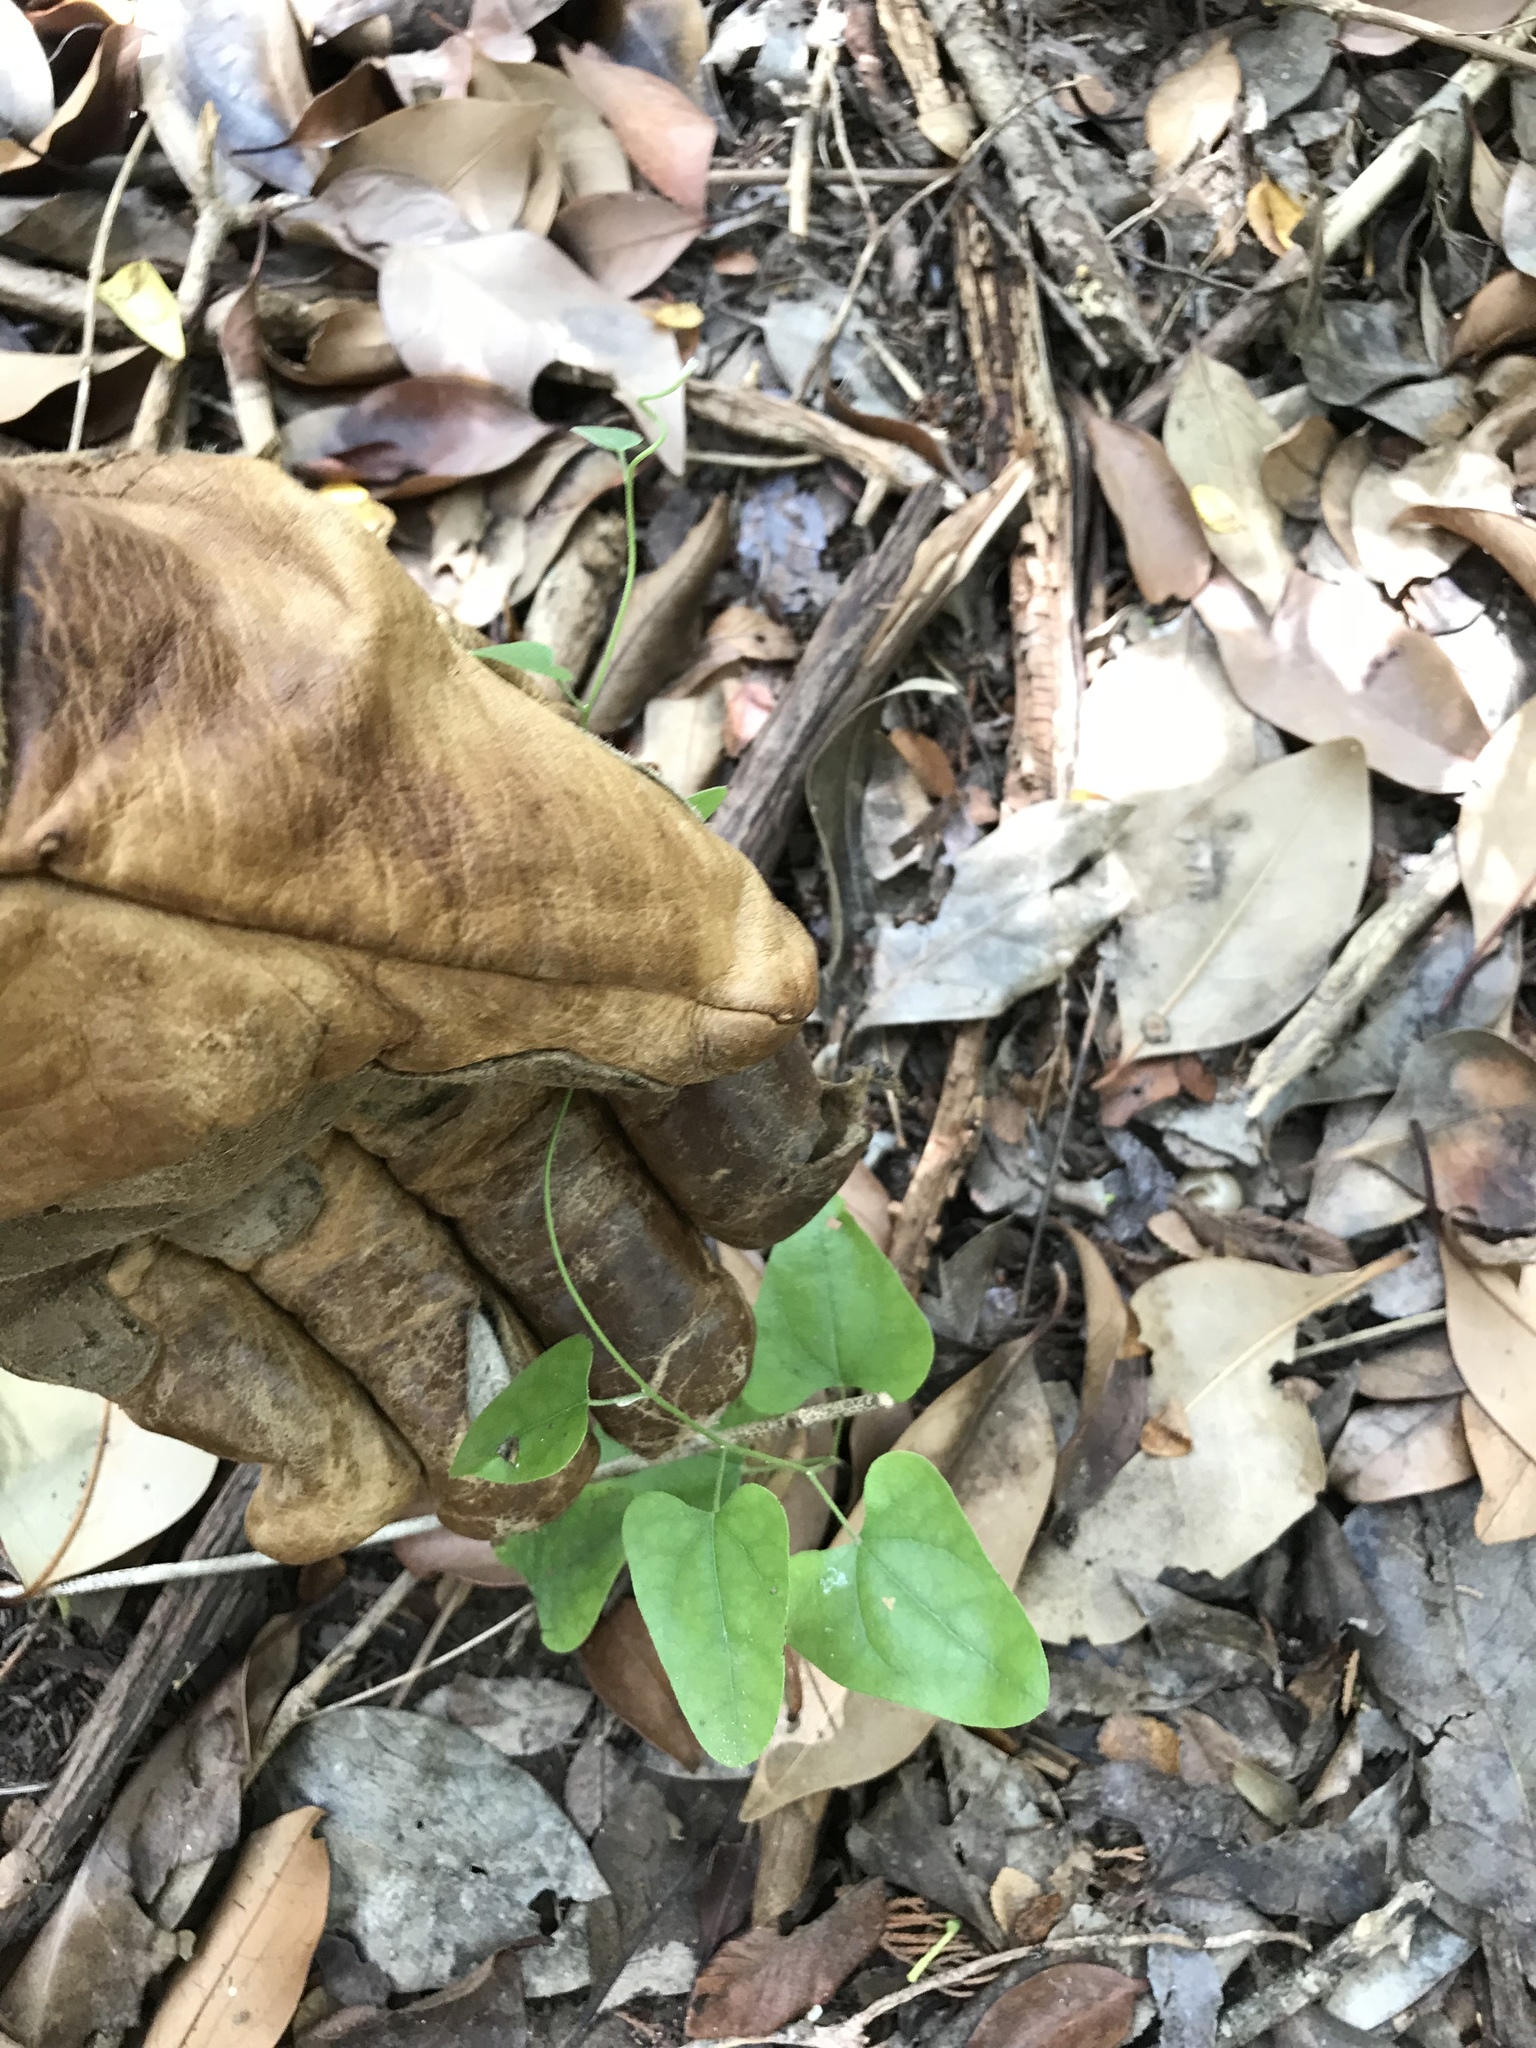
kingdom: Plantae
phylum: Tracheophyta
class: Liliopsida
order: Liliales
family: Smilacaceae
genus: Smilax
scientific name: Smilax bona-nox
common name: Catbrier
